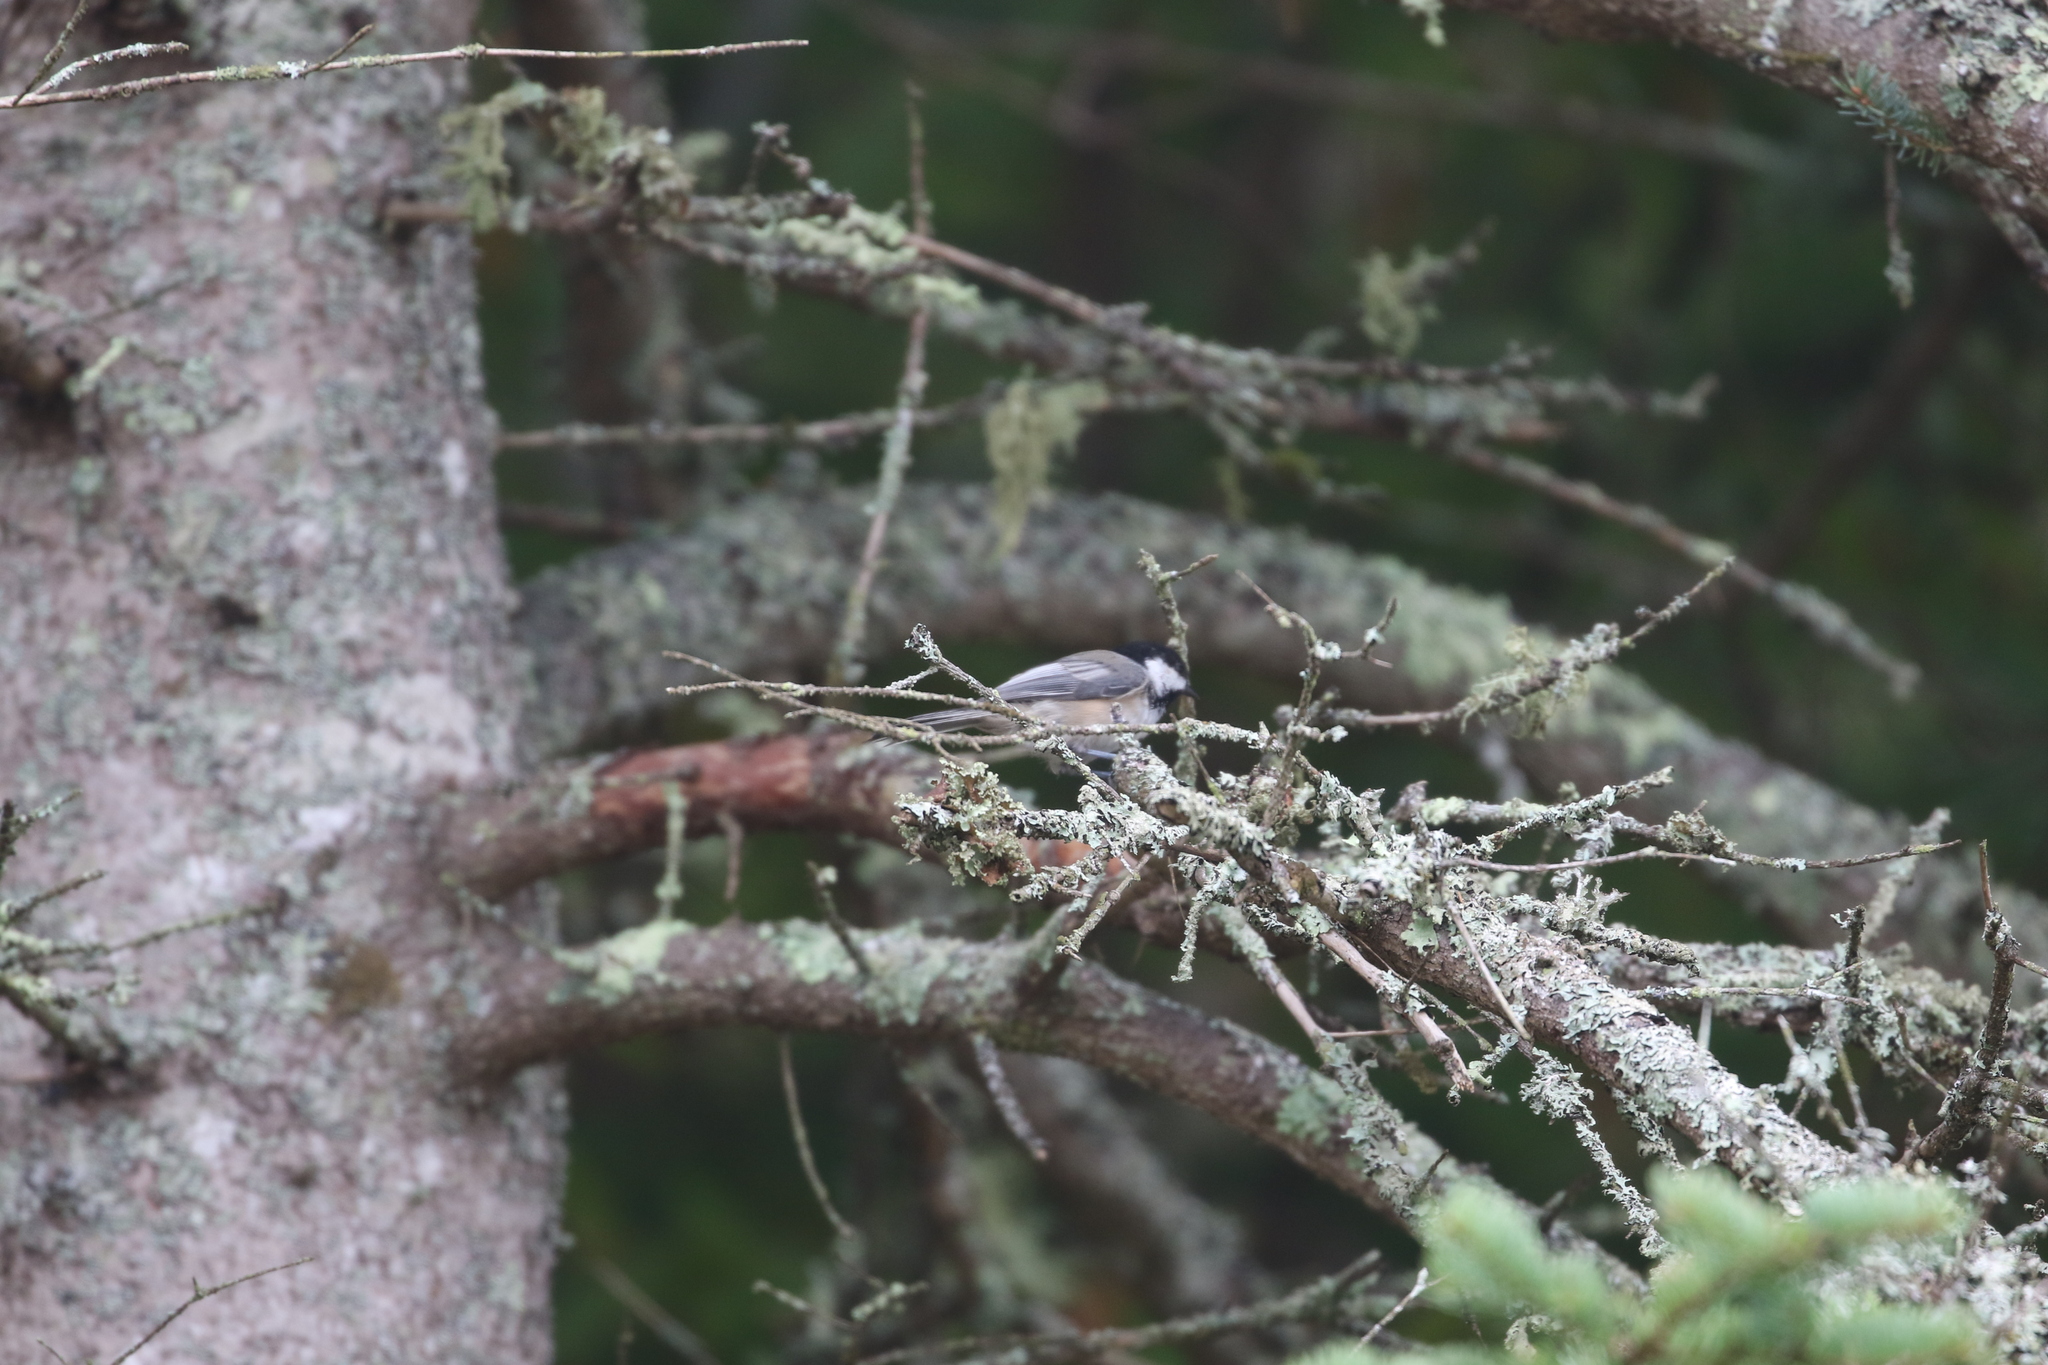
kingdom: Animalia
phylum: Chordata
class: Aves
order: Passeriformes
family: Paridae
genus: Poecile
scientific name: Poecile atricapillus
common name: Black-capped chickadee
